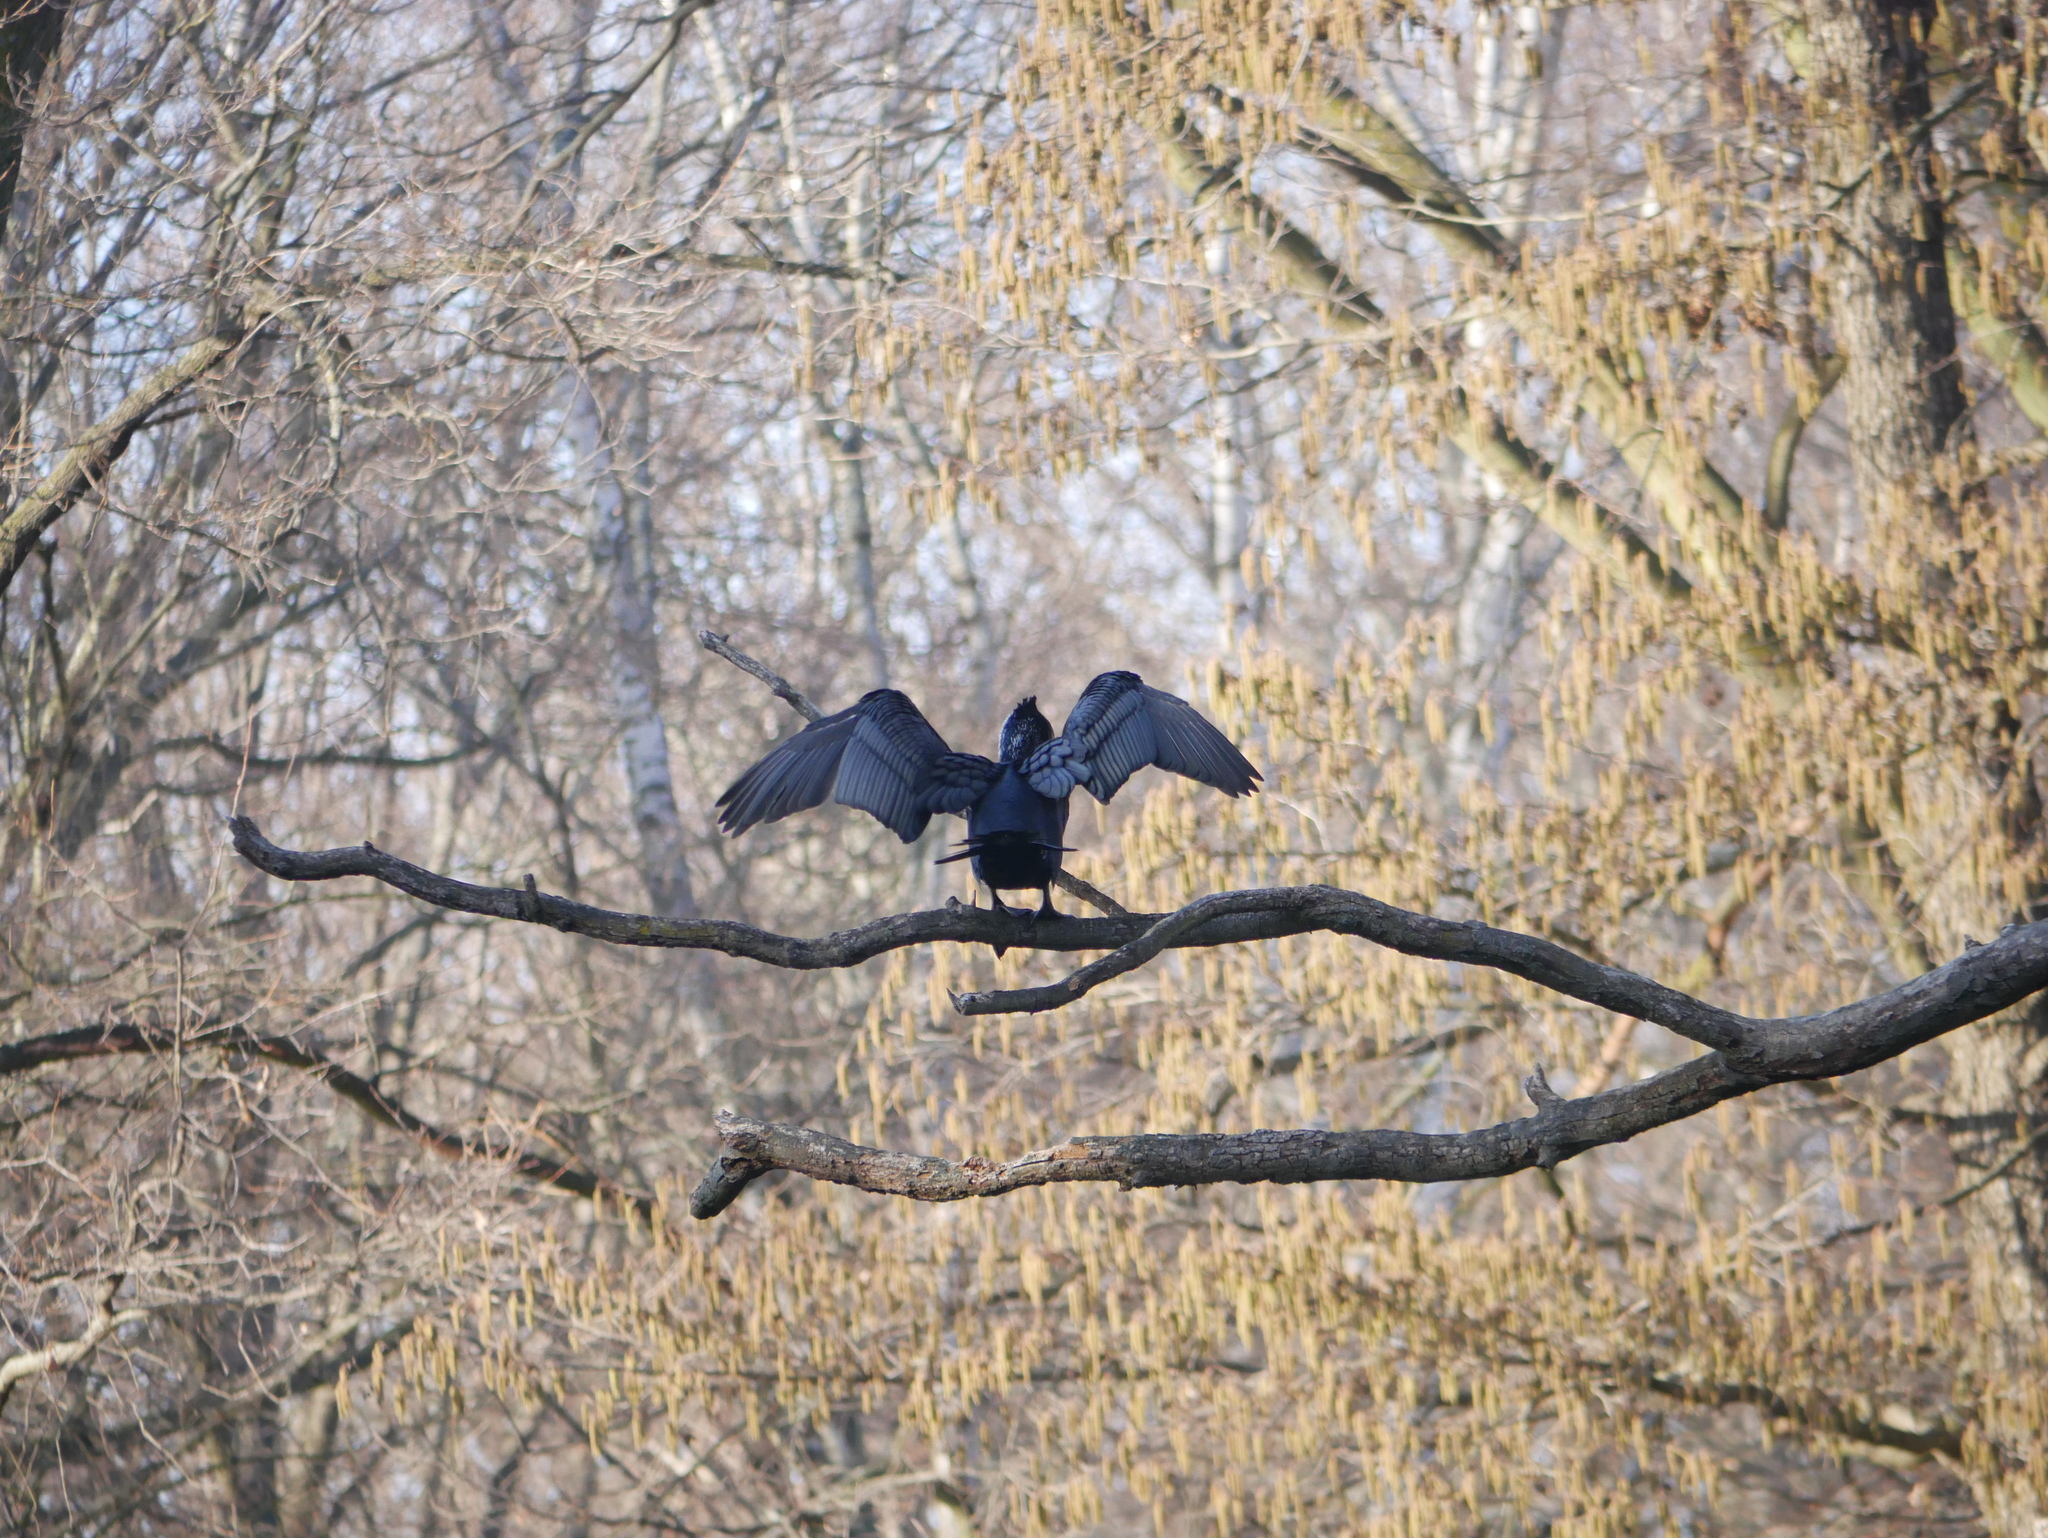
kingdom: Animalia
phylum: Chordata
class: Aves
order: Suliformes
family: Phalacrocoracidae
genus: Phalacrocorax
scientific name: Phalacrocorax carbo
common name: Great cormorant
